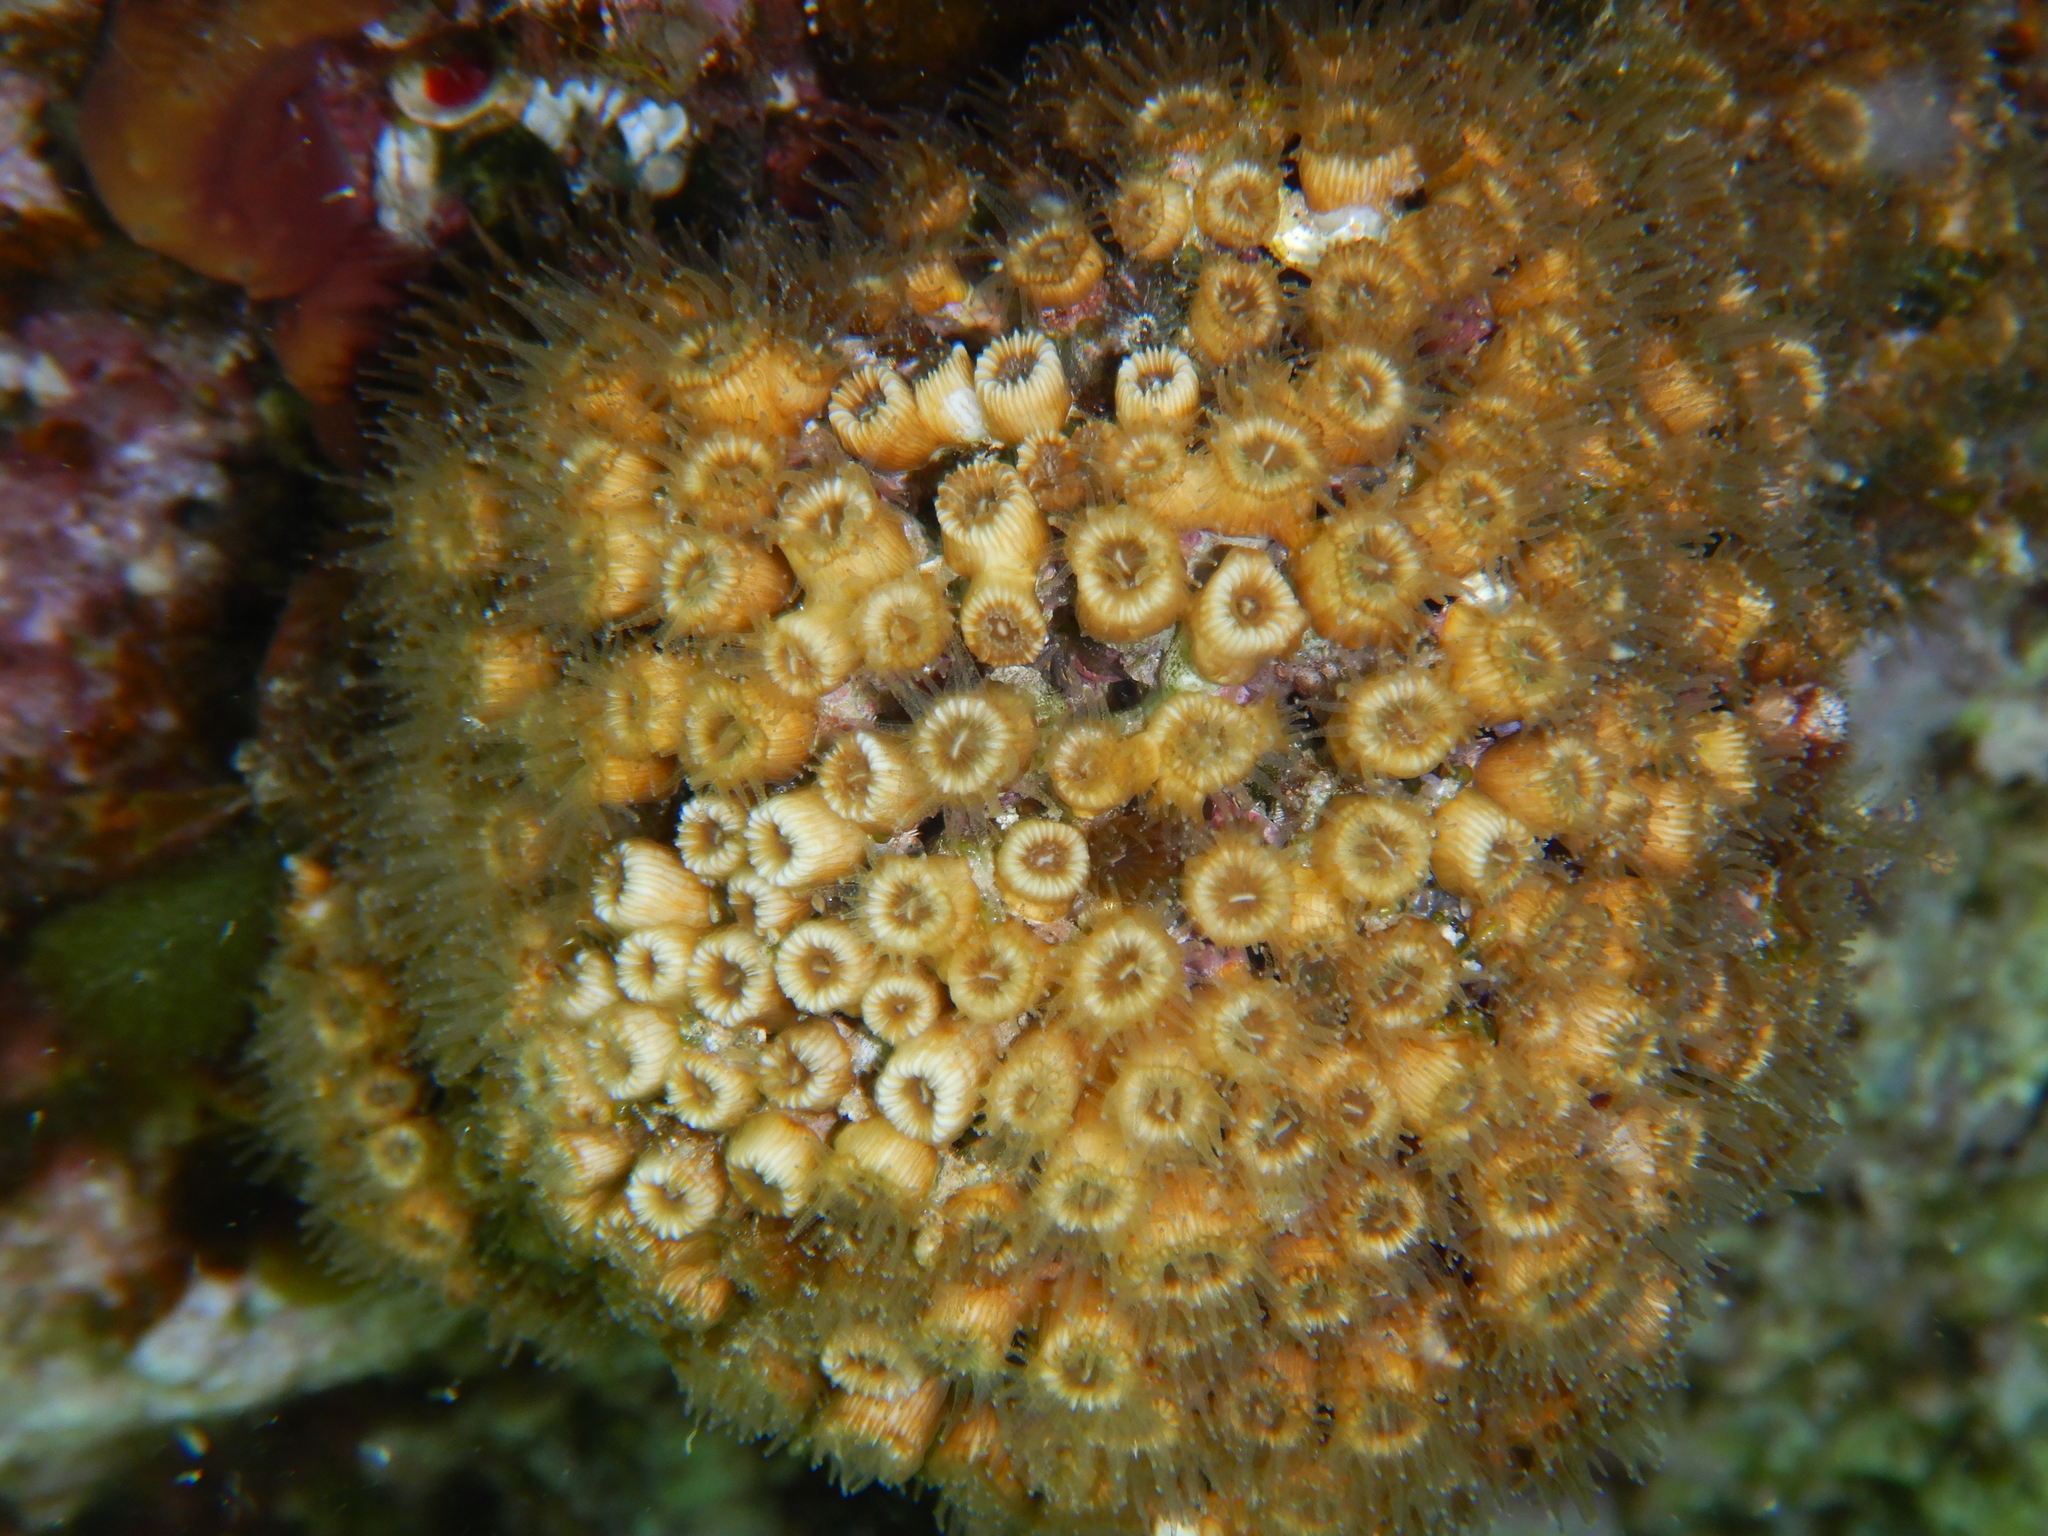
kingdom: Animalia
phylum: Cnidaria
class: Anthozoa
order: Scleractinia
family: Cladocoridae
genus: Cladocora
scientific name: Cladocora caespitosa
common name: Cladocora
